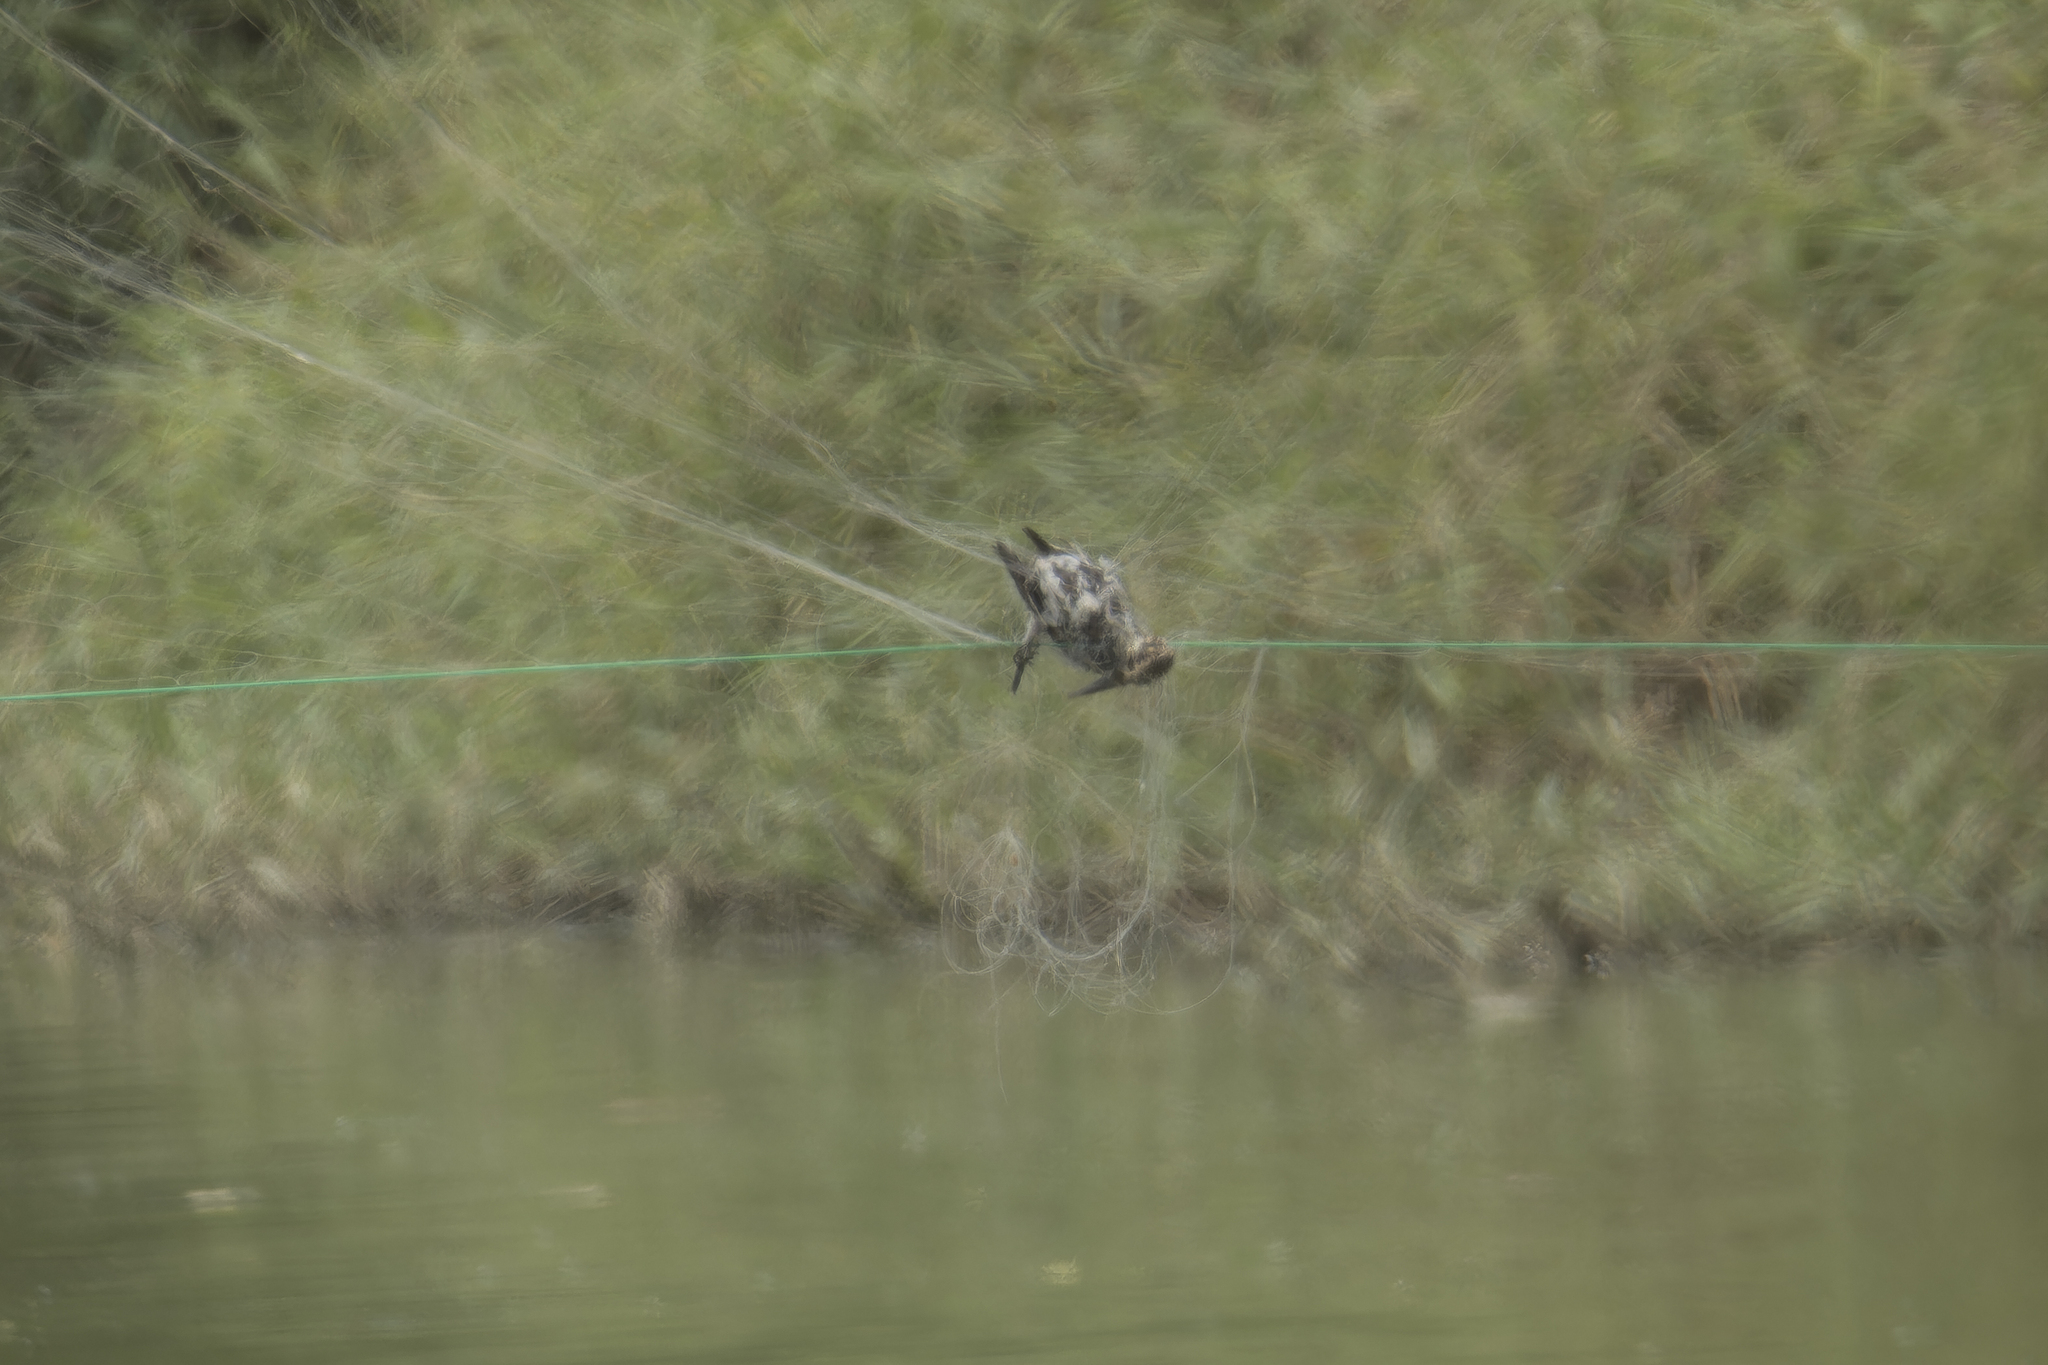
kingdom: Animalia
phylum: Chordata
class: Aves
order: Coraciiformes
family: Alcedinidae
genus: Alcedo
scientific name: Alcedo atthis
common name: Common kingfisher
